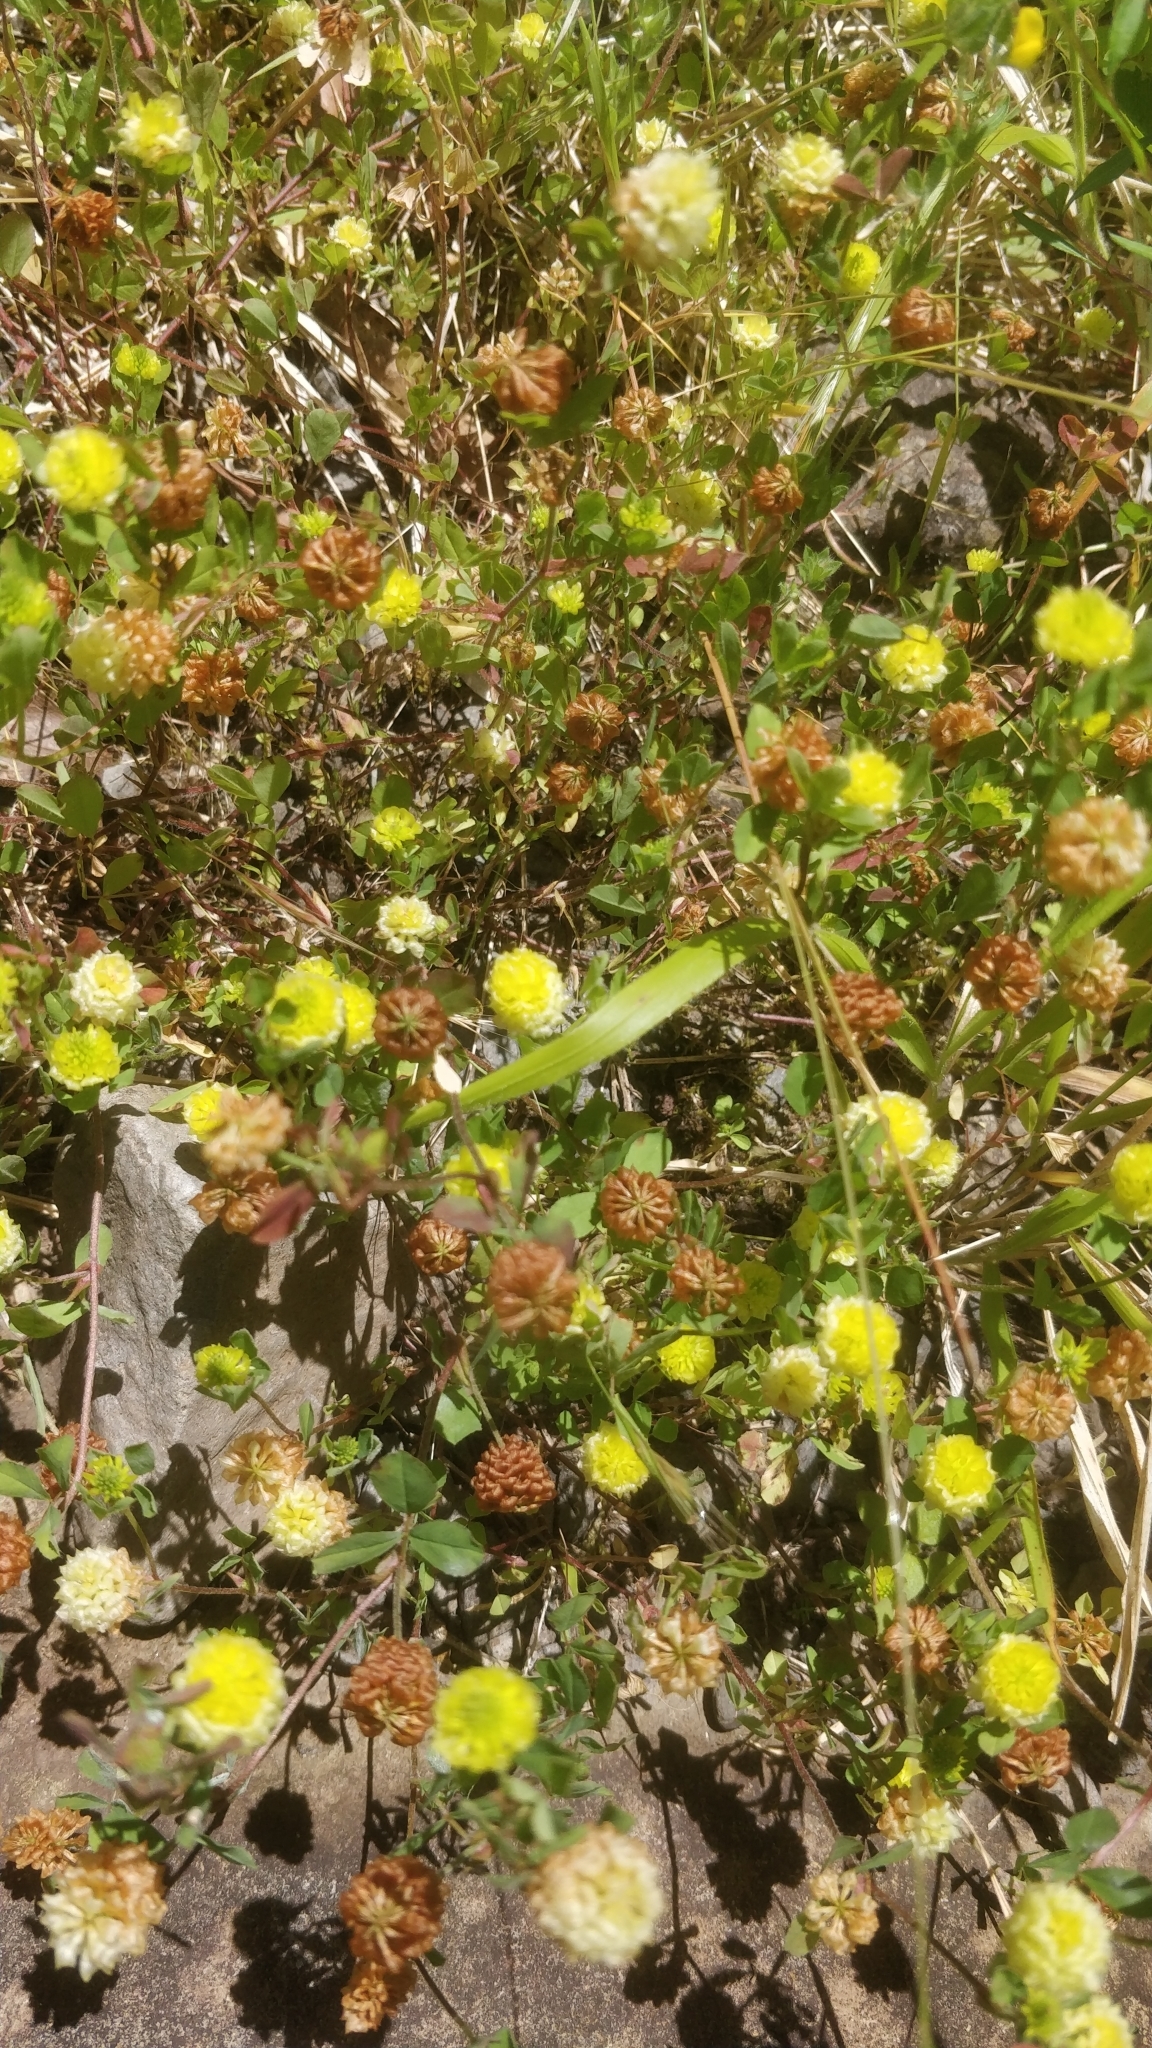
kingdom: Plantae
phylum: Tracheophyta
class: Magnoliopsida
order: Fabales
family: Fabaceae
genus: Trifolium
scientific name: Trifolium campestre
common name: Field clover
